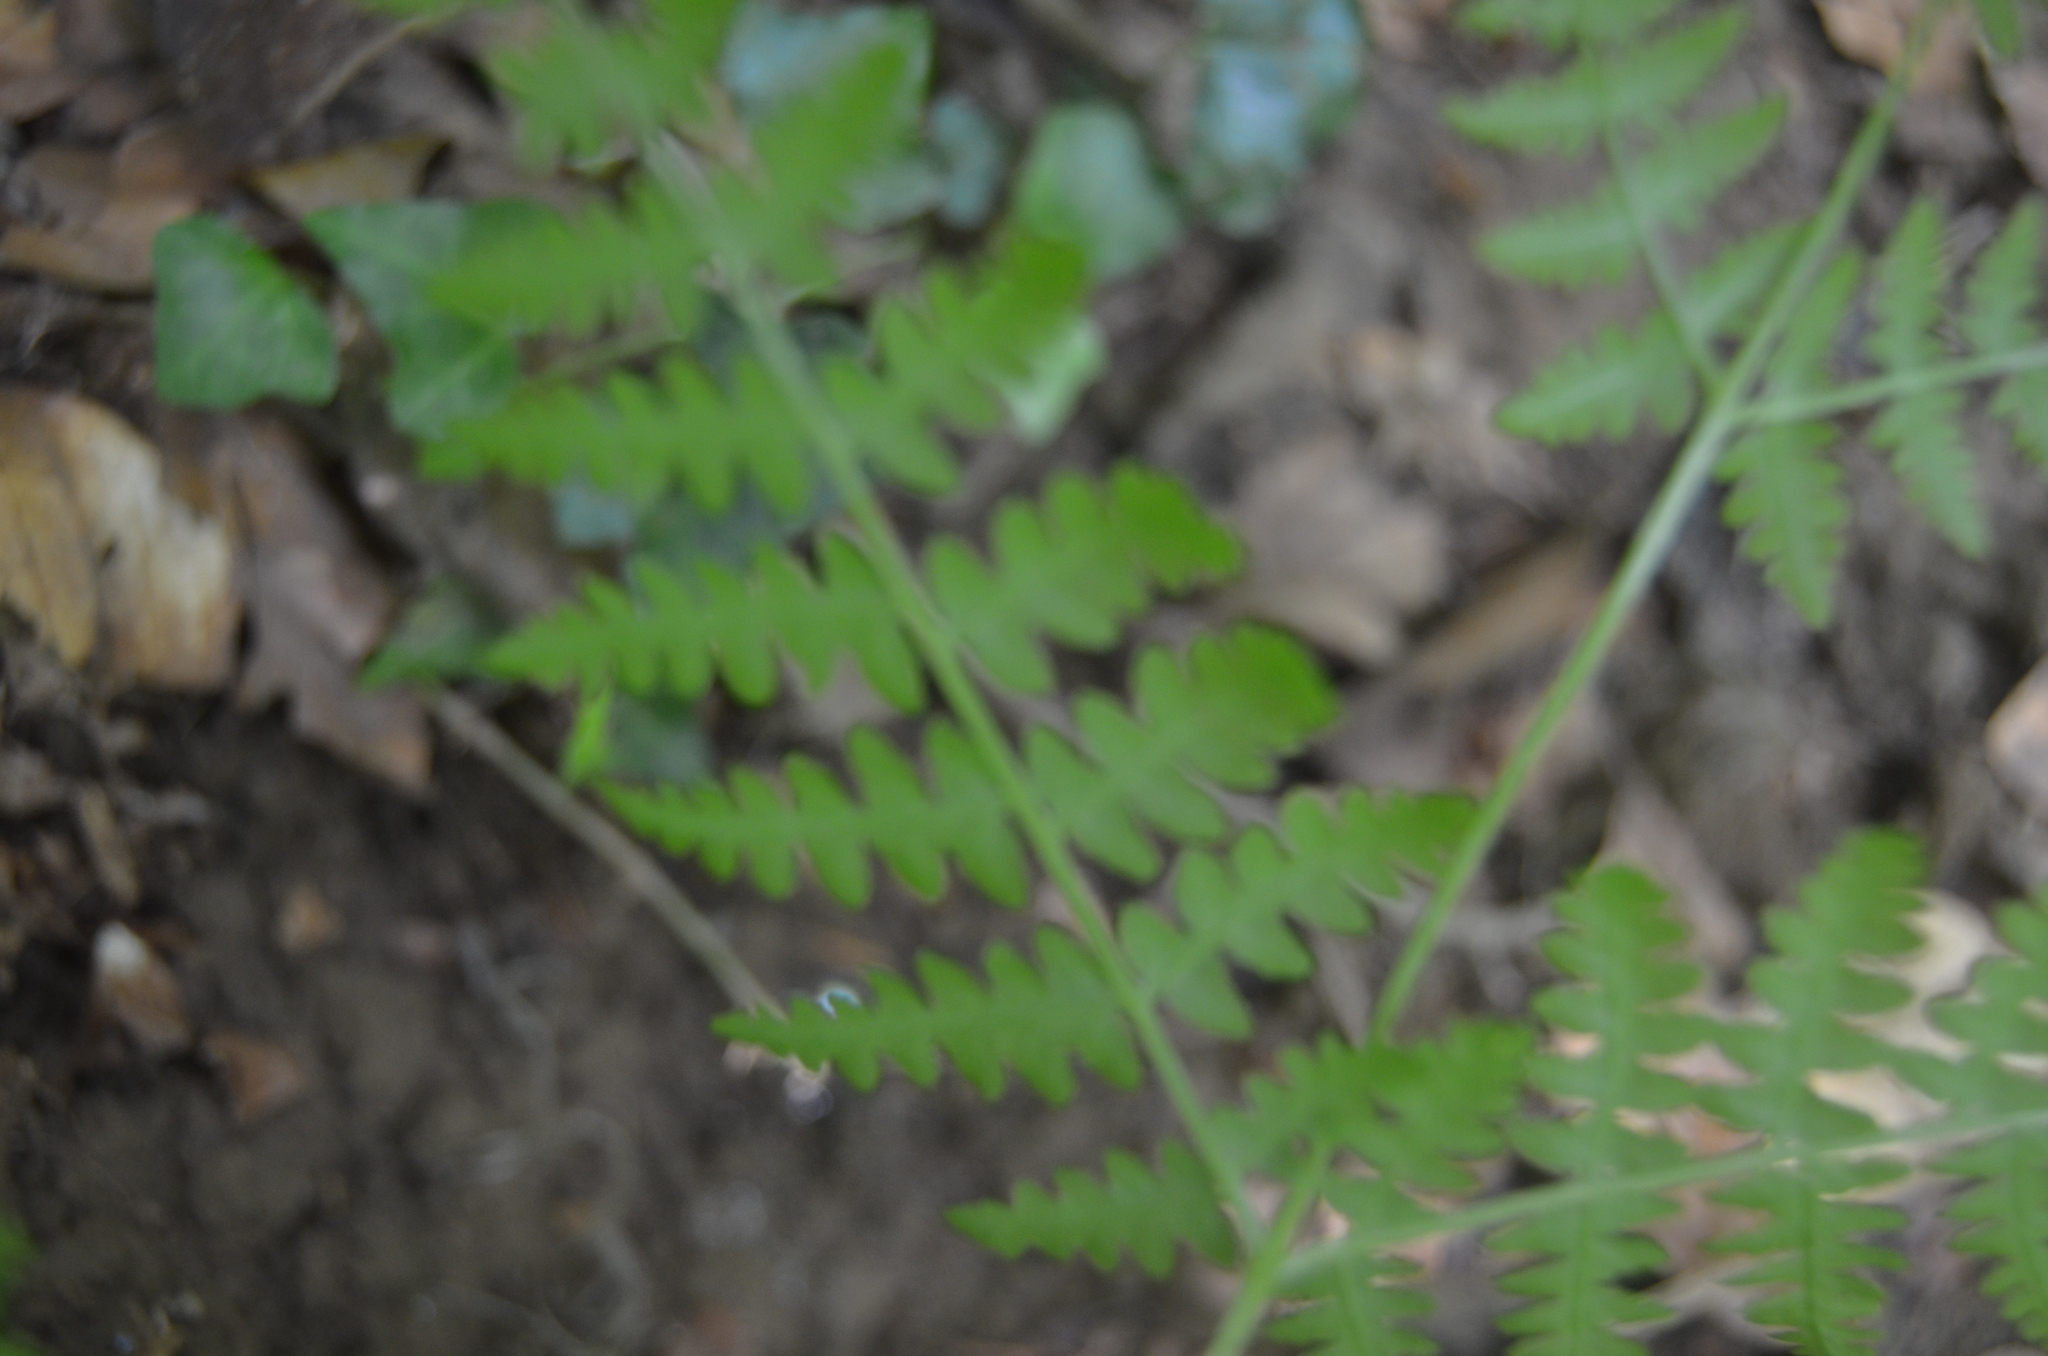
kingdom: Plantae
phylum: Tracheophyta
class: Polypodiopsida
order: Polypodiales
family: Dennstaedtiaceae
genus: Pteridium
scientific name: Pteridium aquilinum
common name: Bracken
